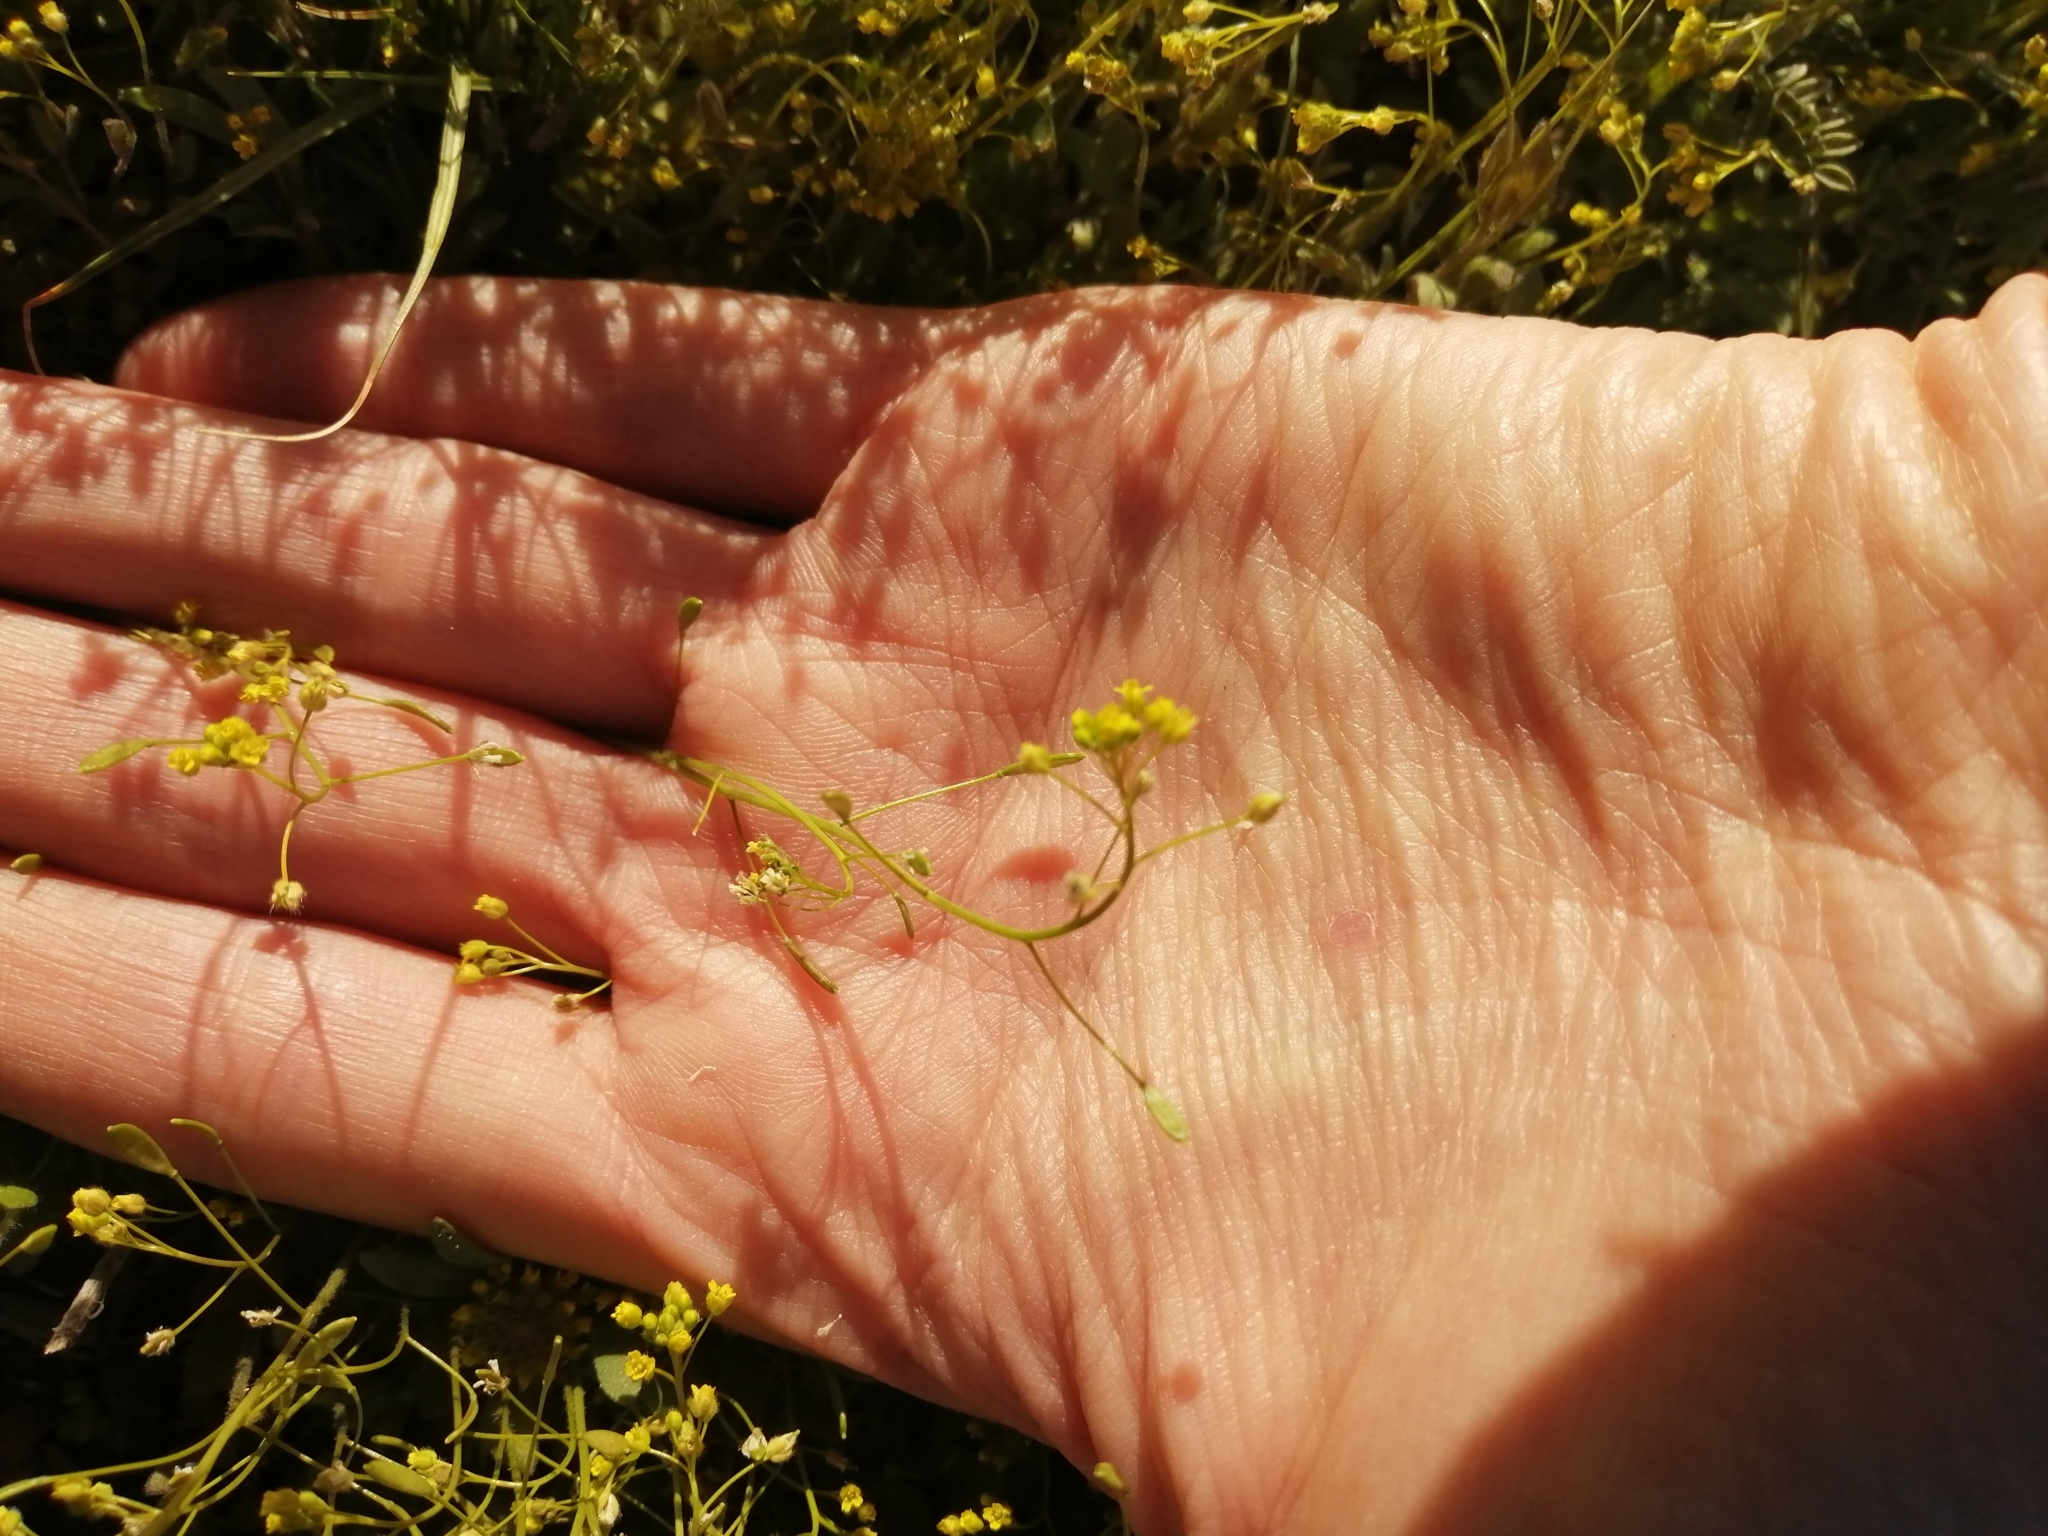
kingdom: Plantae
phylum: Tracheophyta
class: Magnoliopsida
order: Brassicales
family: Brassicaceae
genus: Draba
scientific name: Draba nemorosa
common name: Wood whitlow-grass
